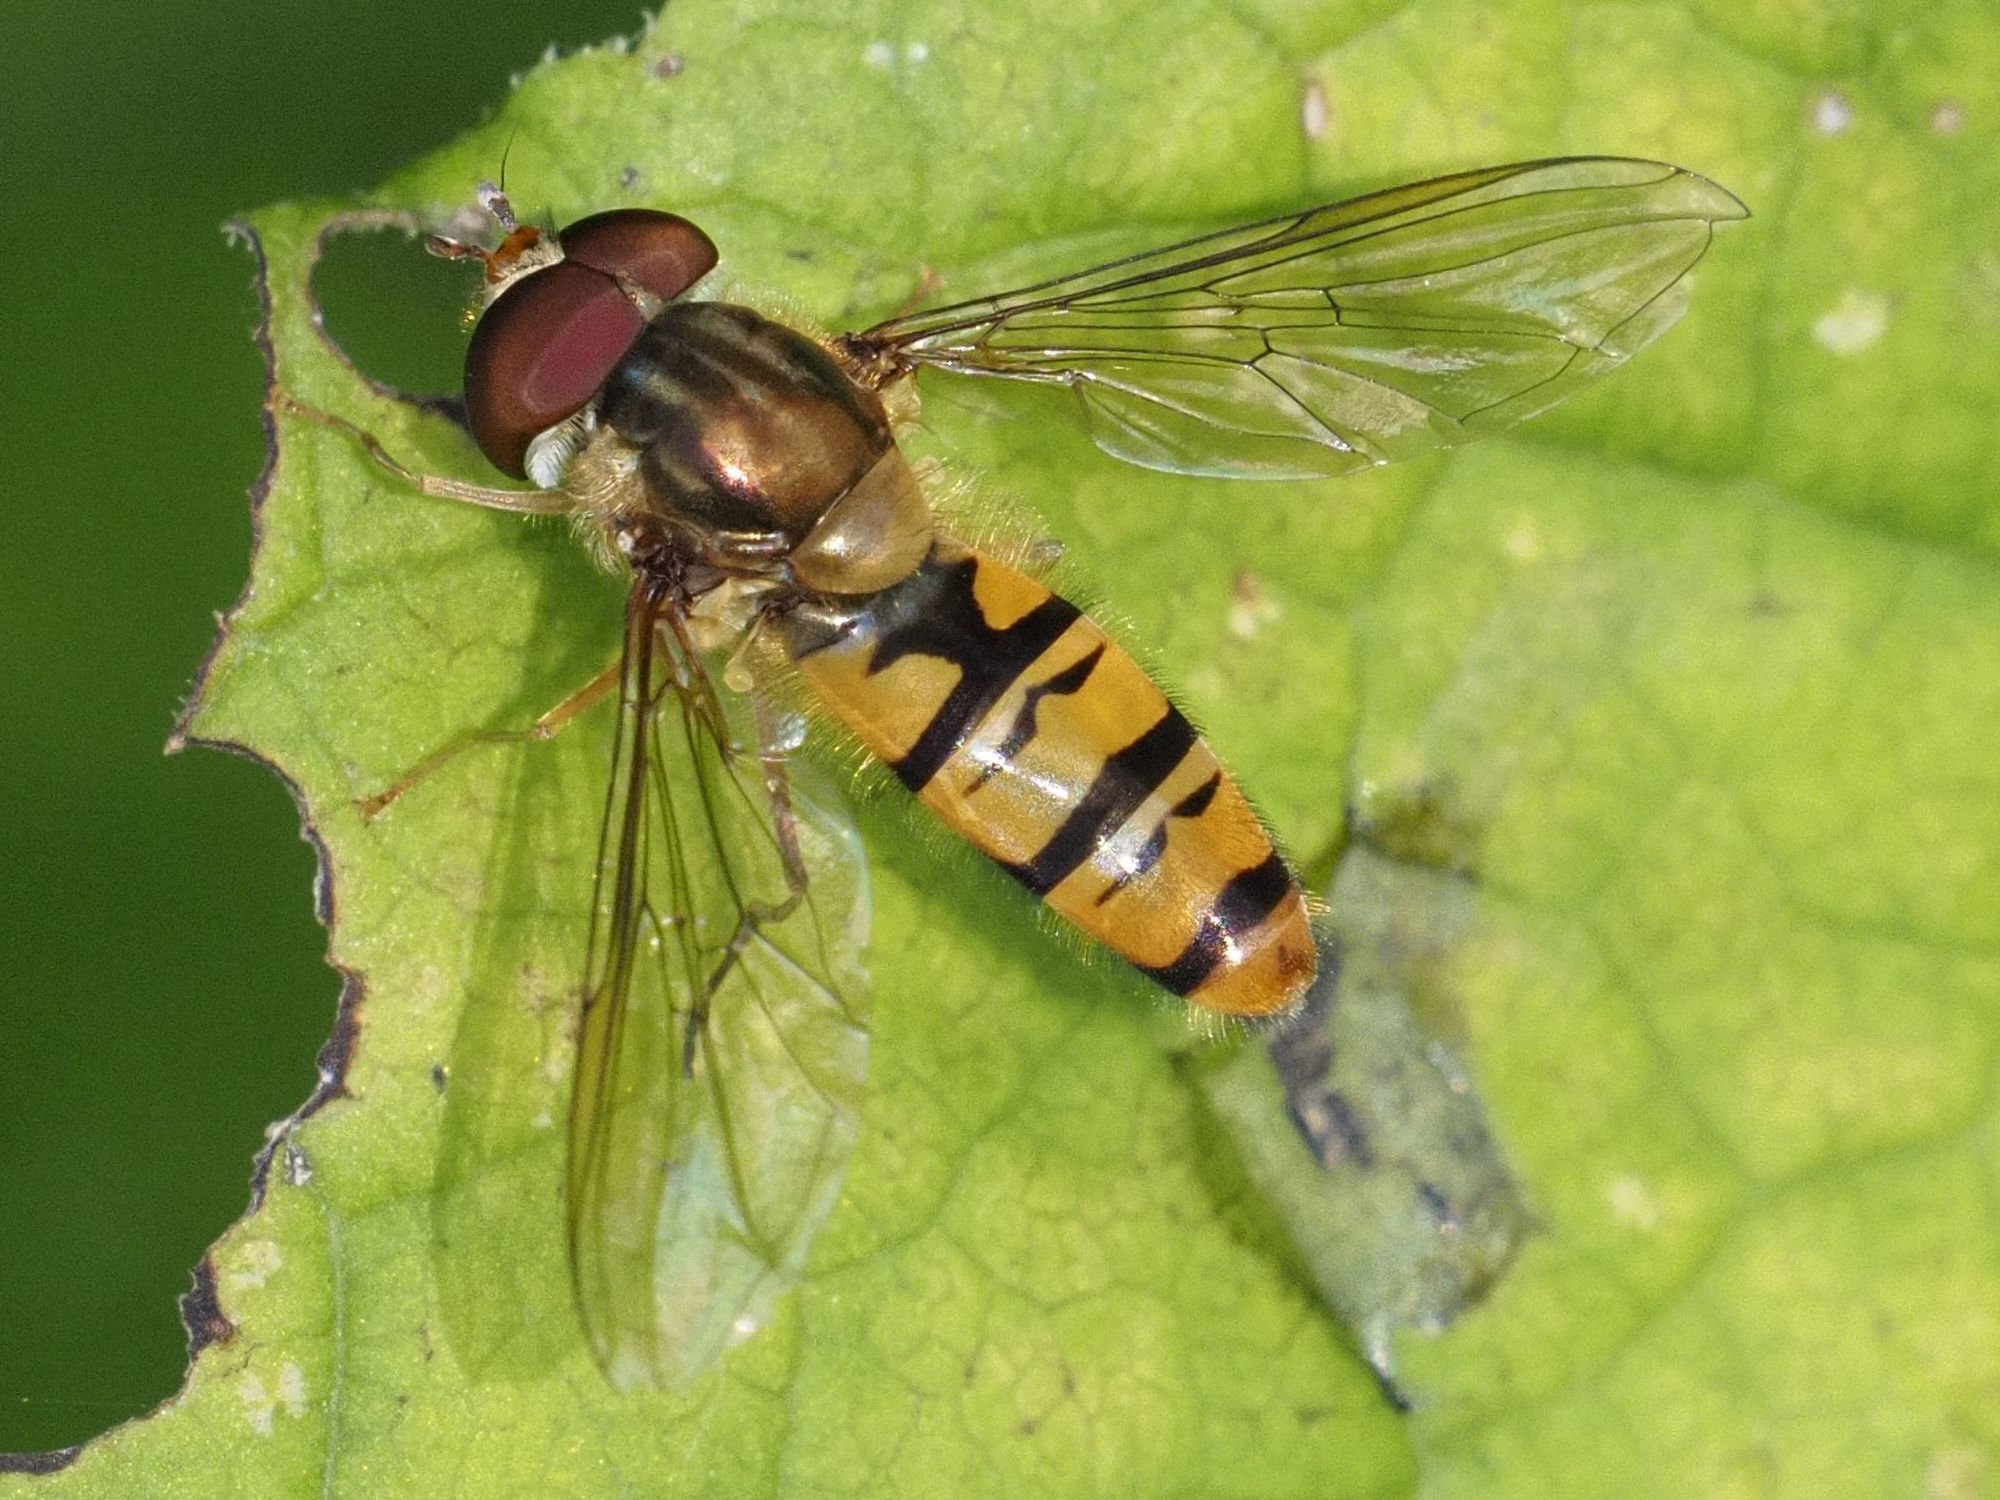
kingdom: Animalia
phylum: Arthropoda
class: Insecta
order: Diptera
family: Syrphidae
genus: Episyrphus
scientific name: Episyrphus balteatus
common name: Marmalade hoverfly
